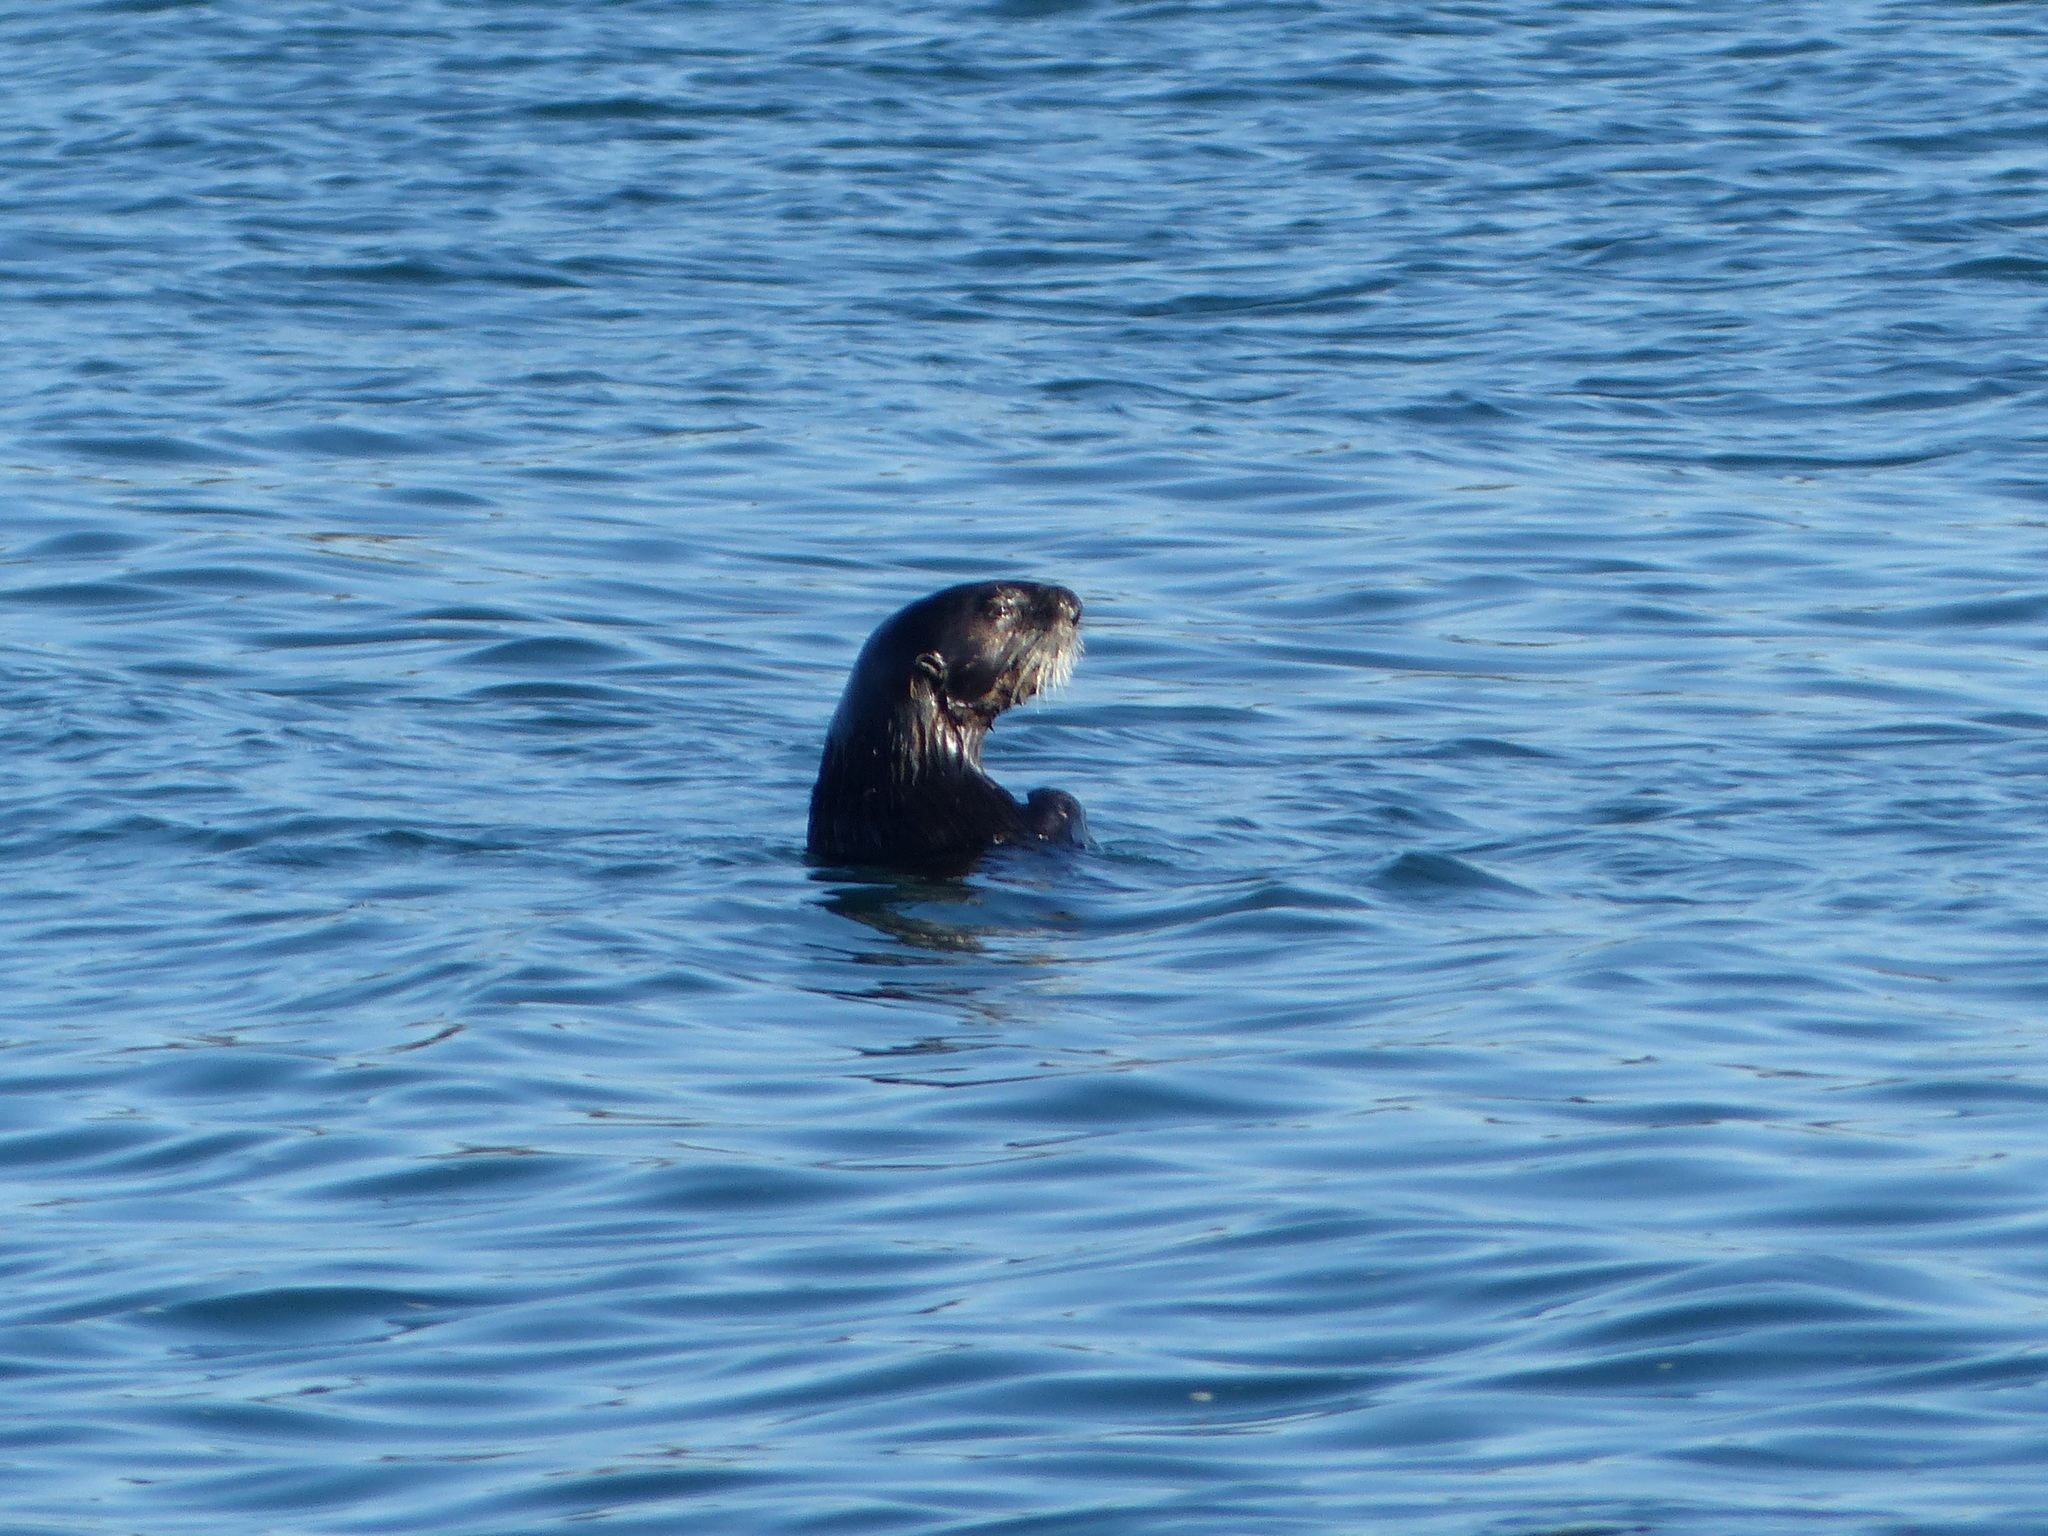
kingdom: Animalia
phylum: Chordata
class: Mammalia
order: Carnivora
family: Mustelidae
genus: Enhydra
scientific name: Enhydra lutris
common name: Sea otter
